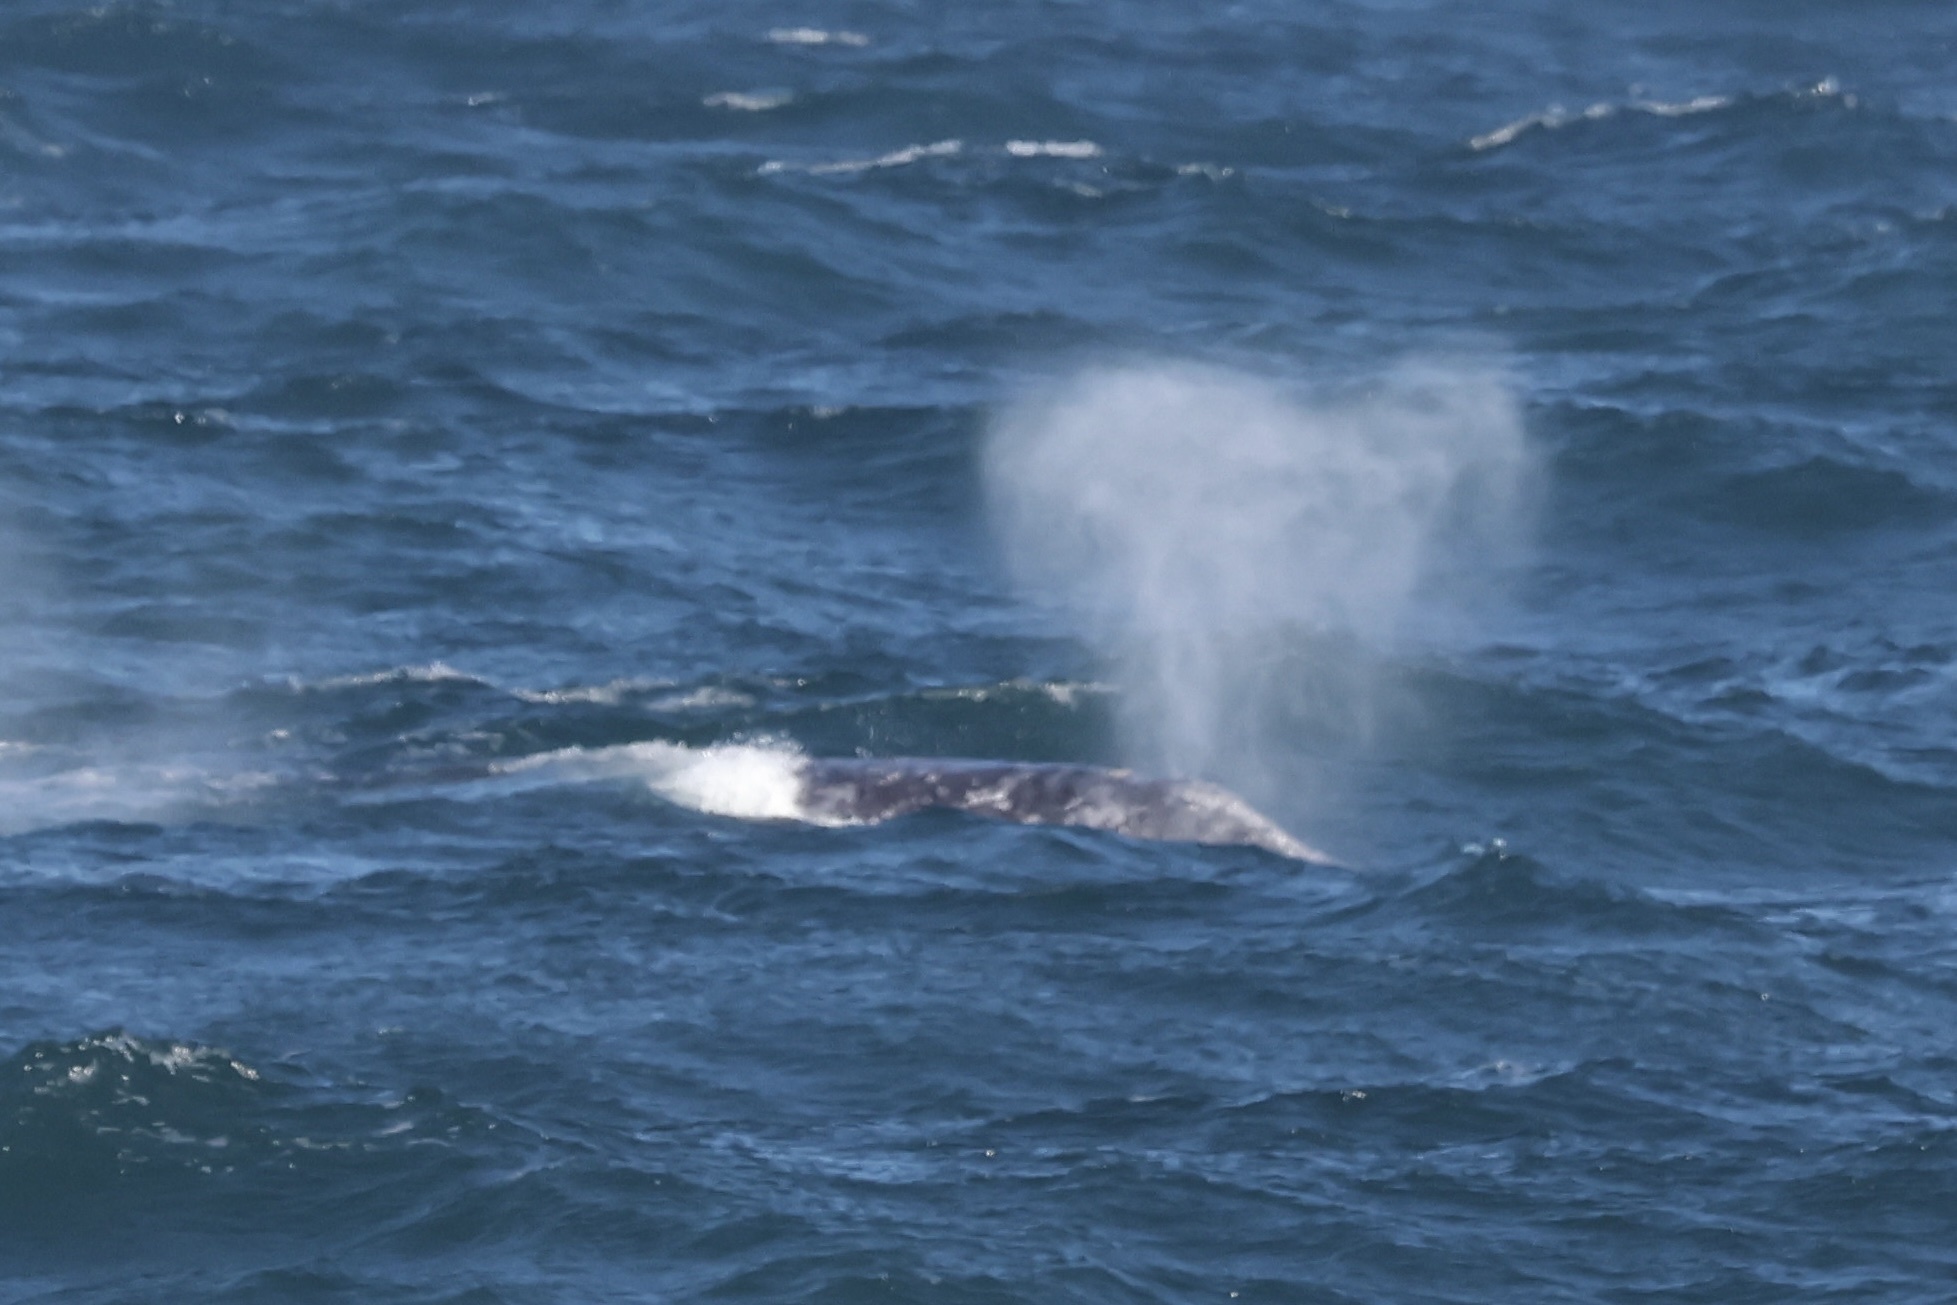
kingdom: Animalia
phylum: Chordata
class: Mammalia
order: Cetacea
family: Eschrichtiidae
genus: Eschrichtius
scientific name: Eschrichtius robustus
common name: Gray whale
